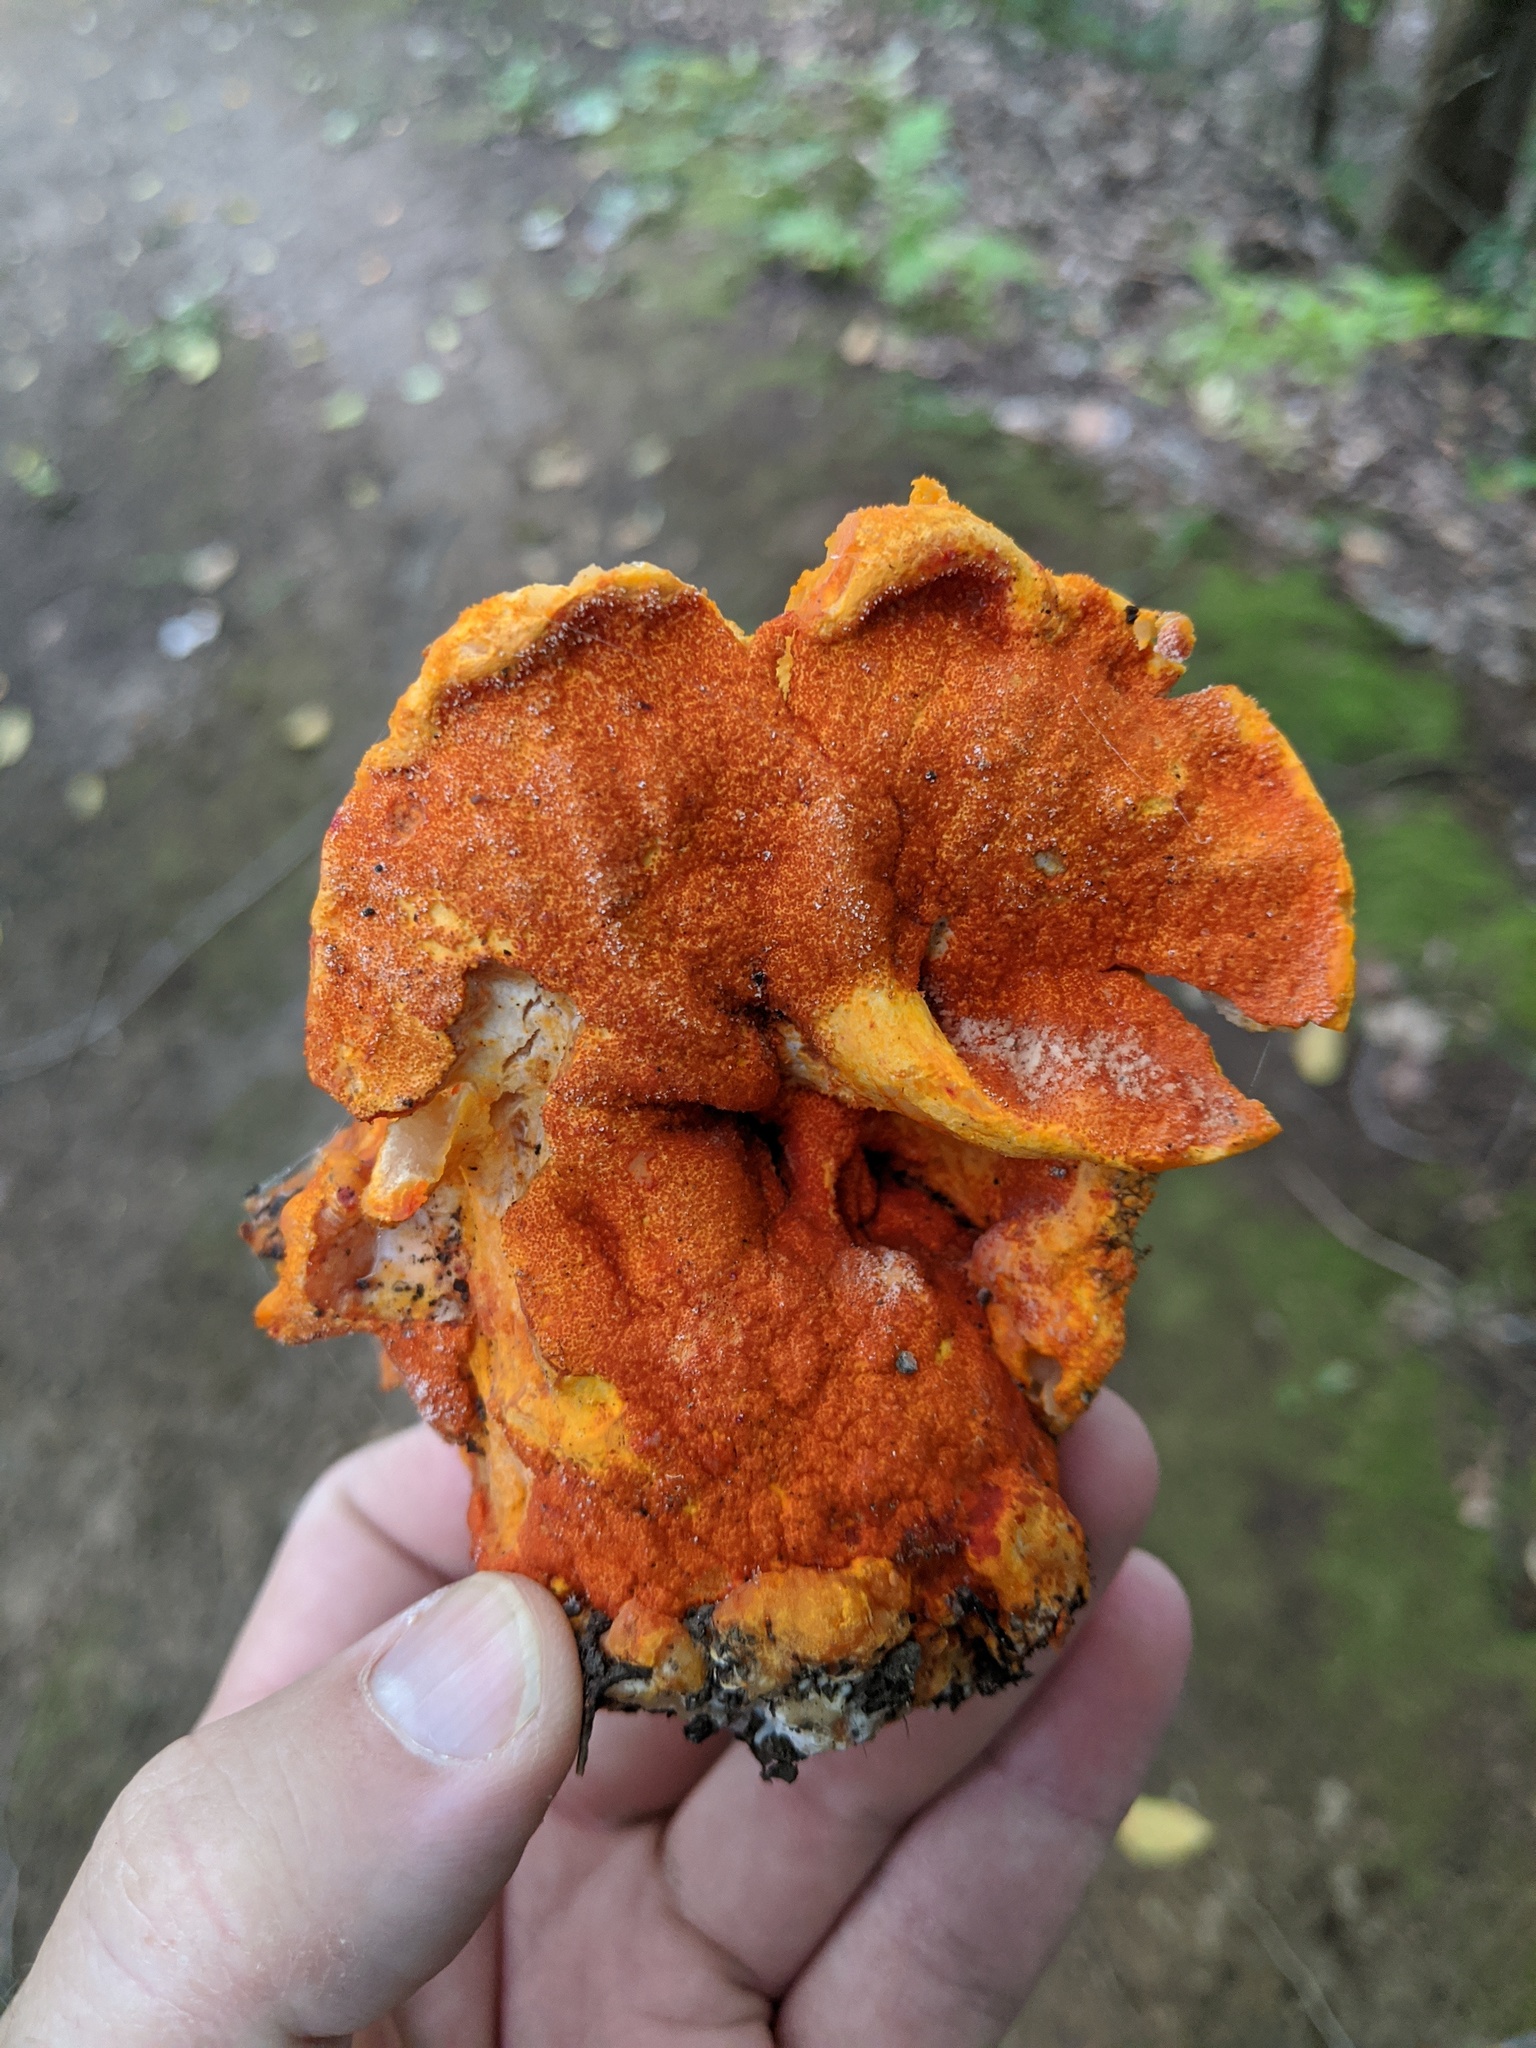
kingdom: Fungi
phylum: Ascomycota
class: Sordariomycetes
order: Hypocreales
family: Hypocreaceae
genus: Hypomyces
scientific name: Hypomyces lactifluorum
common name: Lobster mushroom
